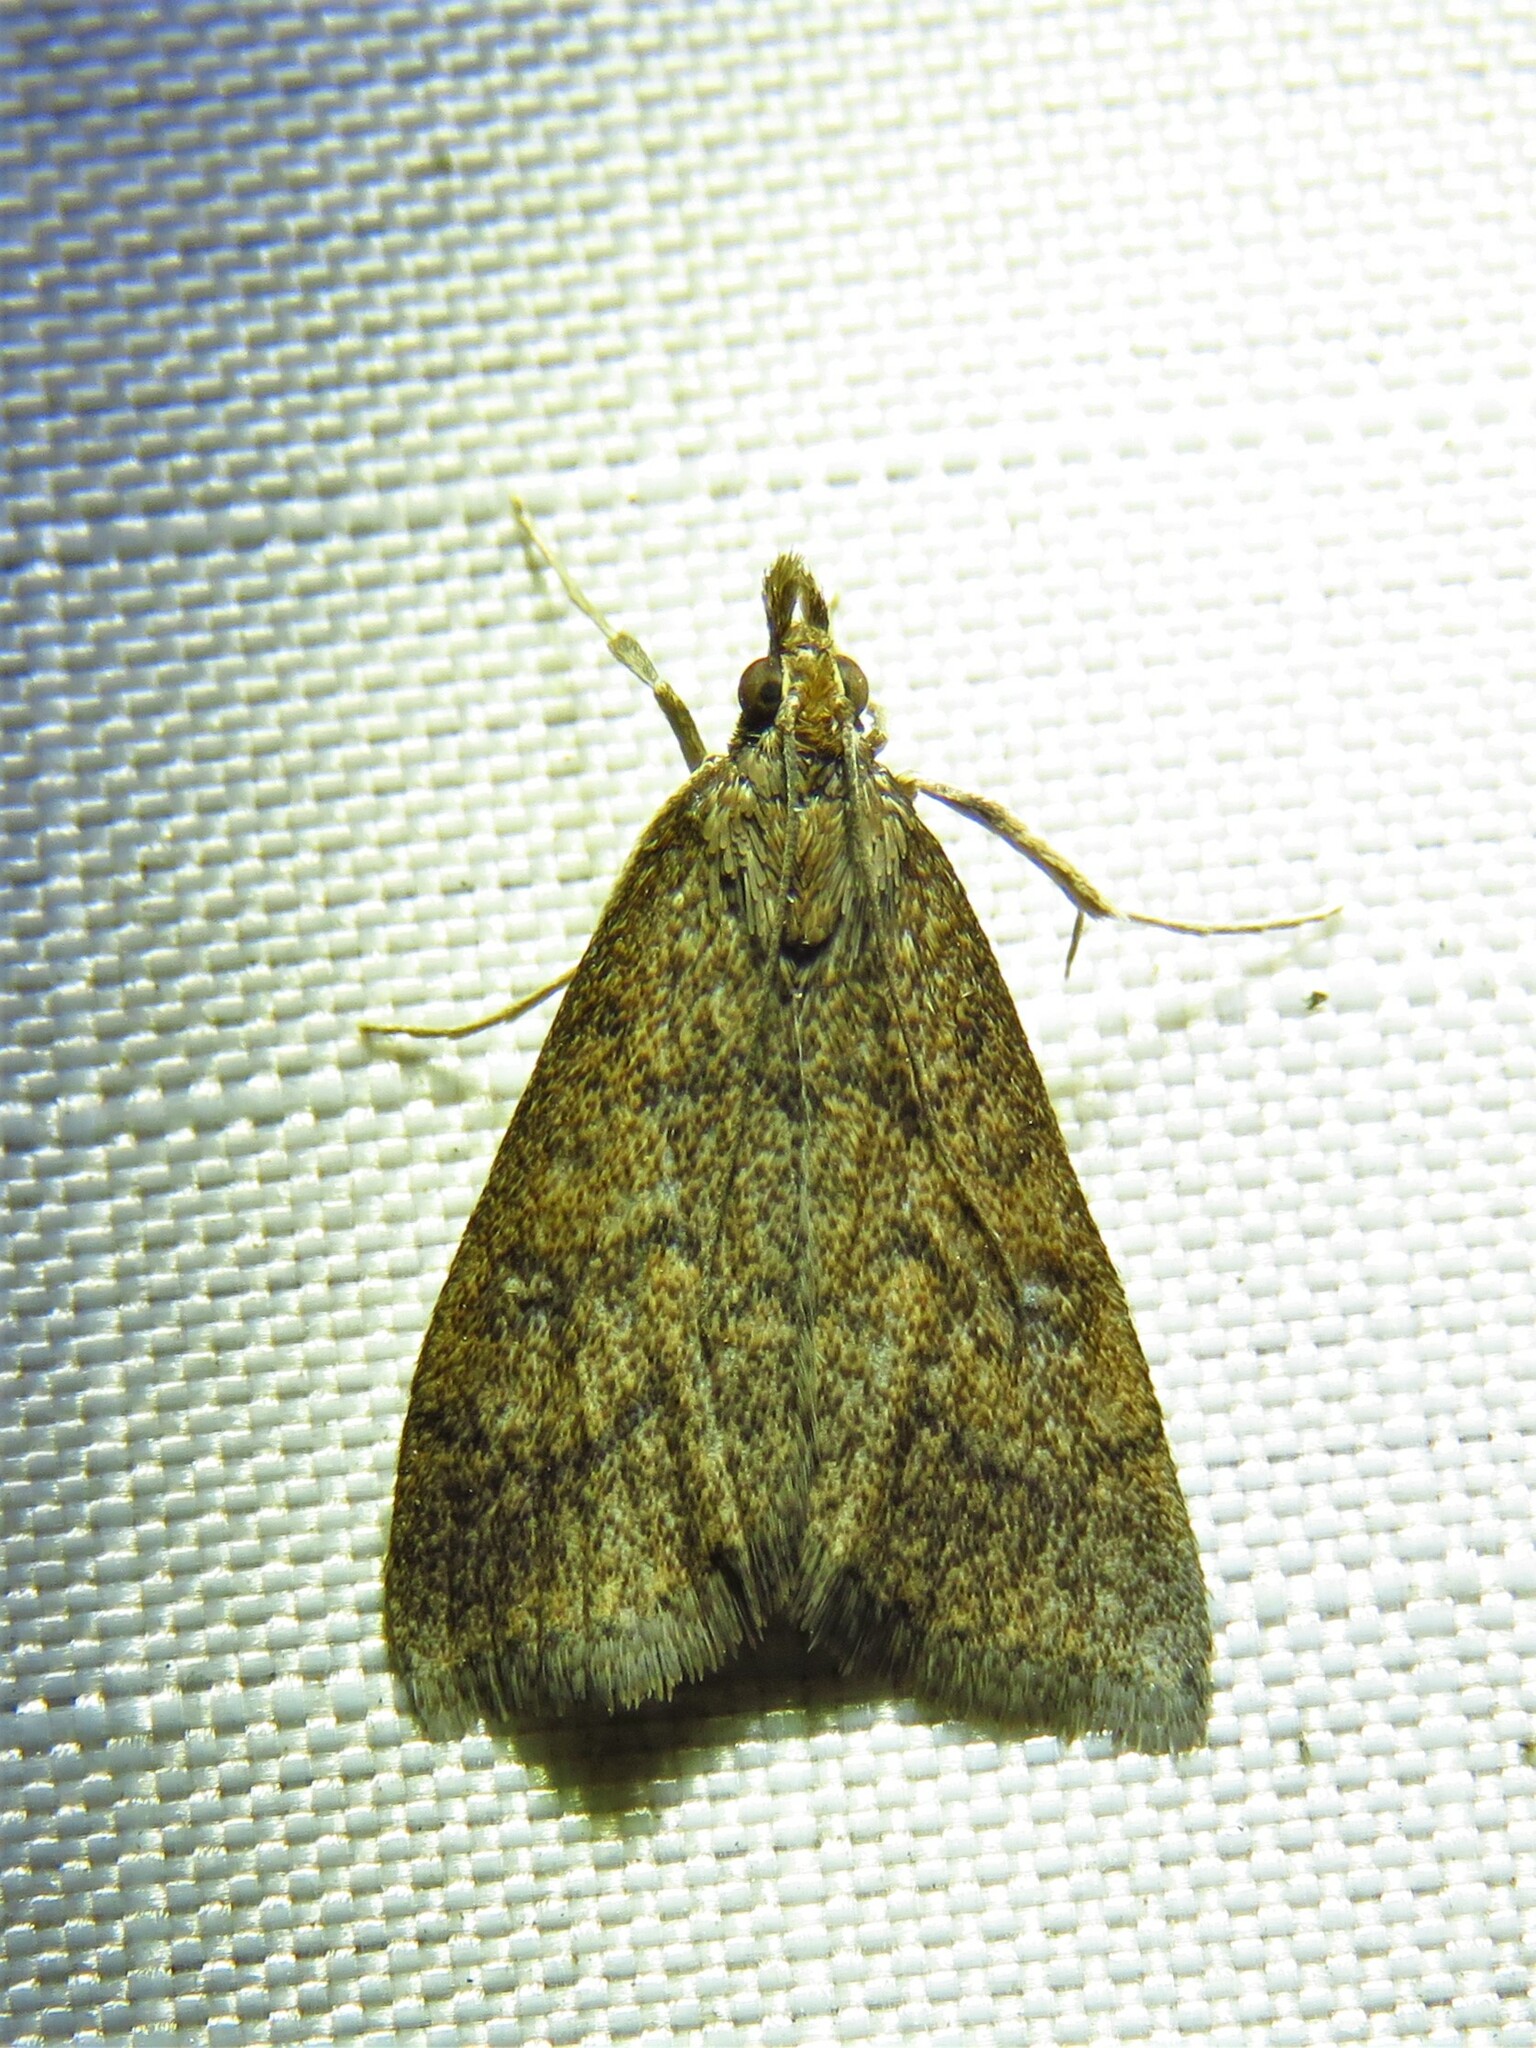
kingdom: Animalia
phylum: Arthropoda
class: Insecta
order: Lepidoptera
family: Crambidae
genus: Udea
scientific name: Udea rubigalis
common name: Celery leaftier moth
